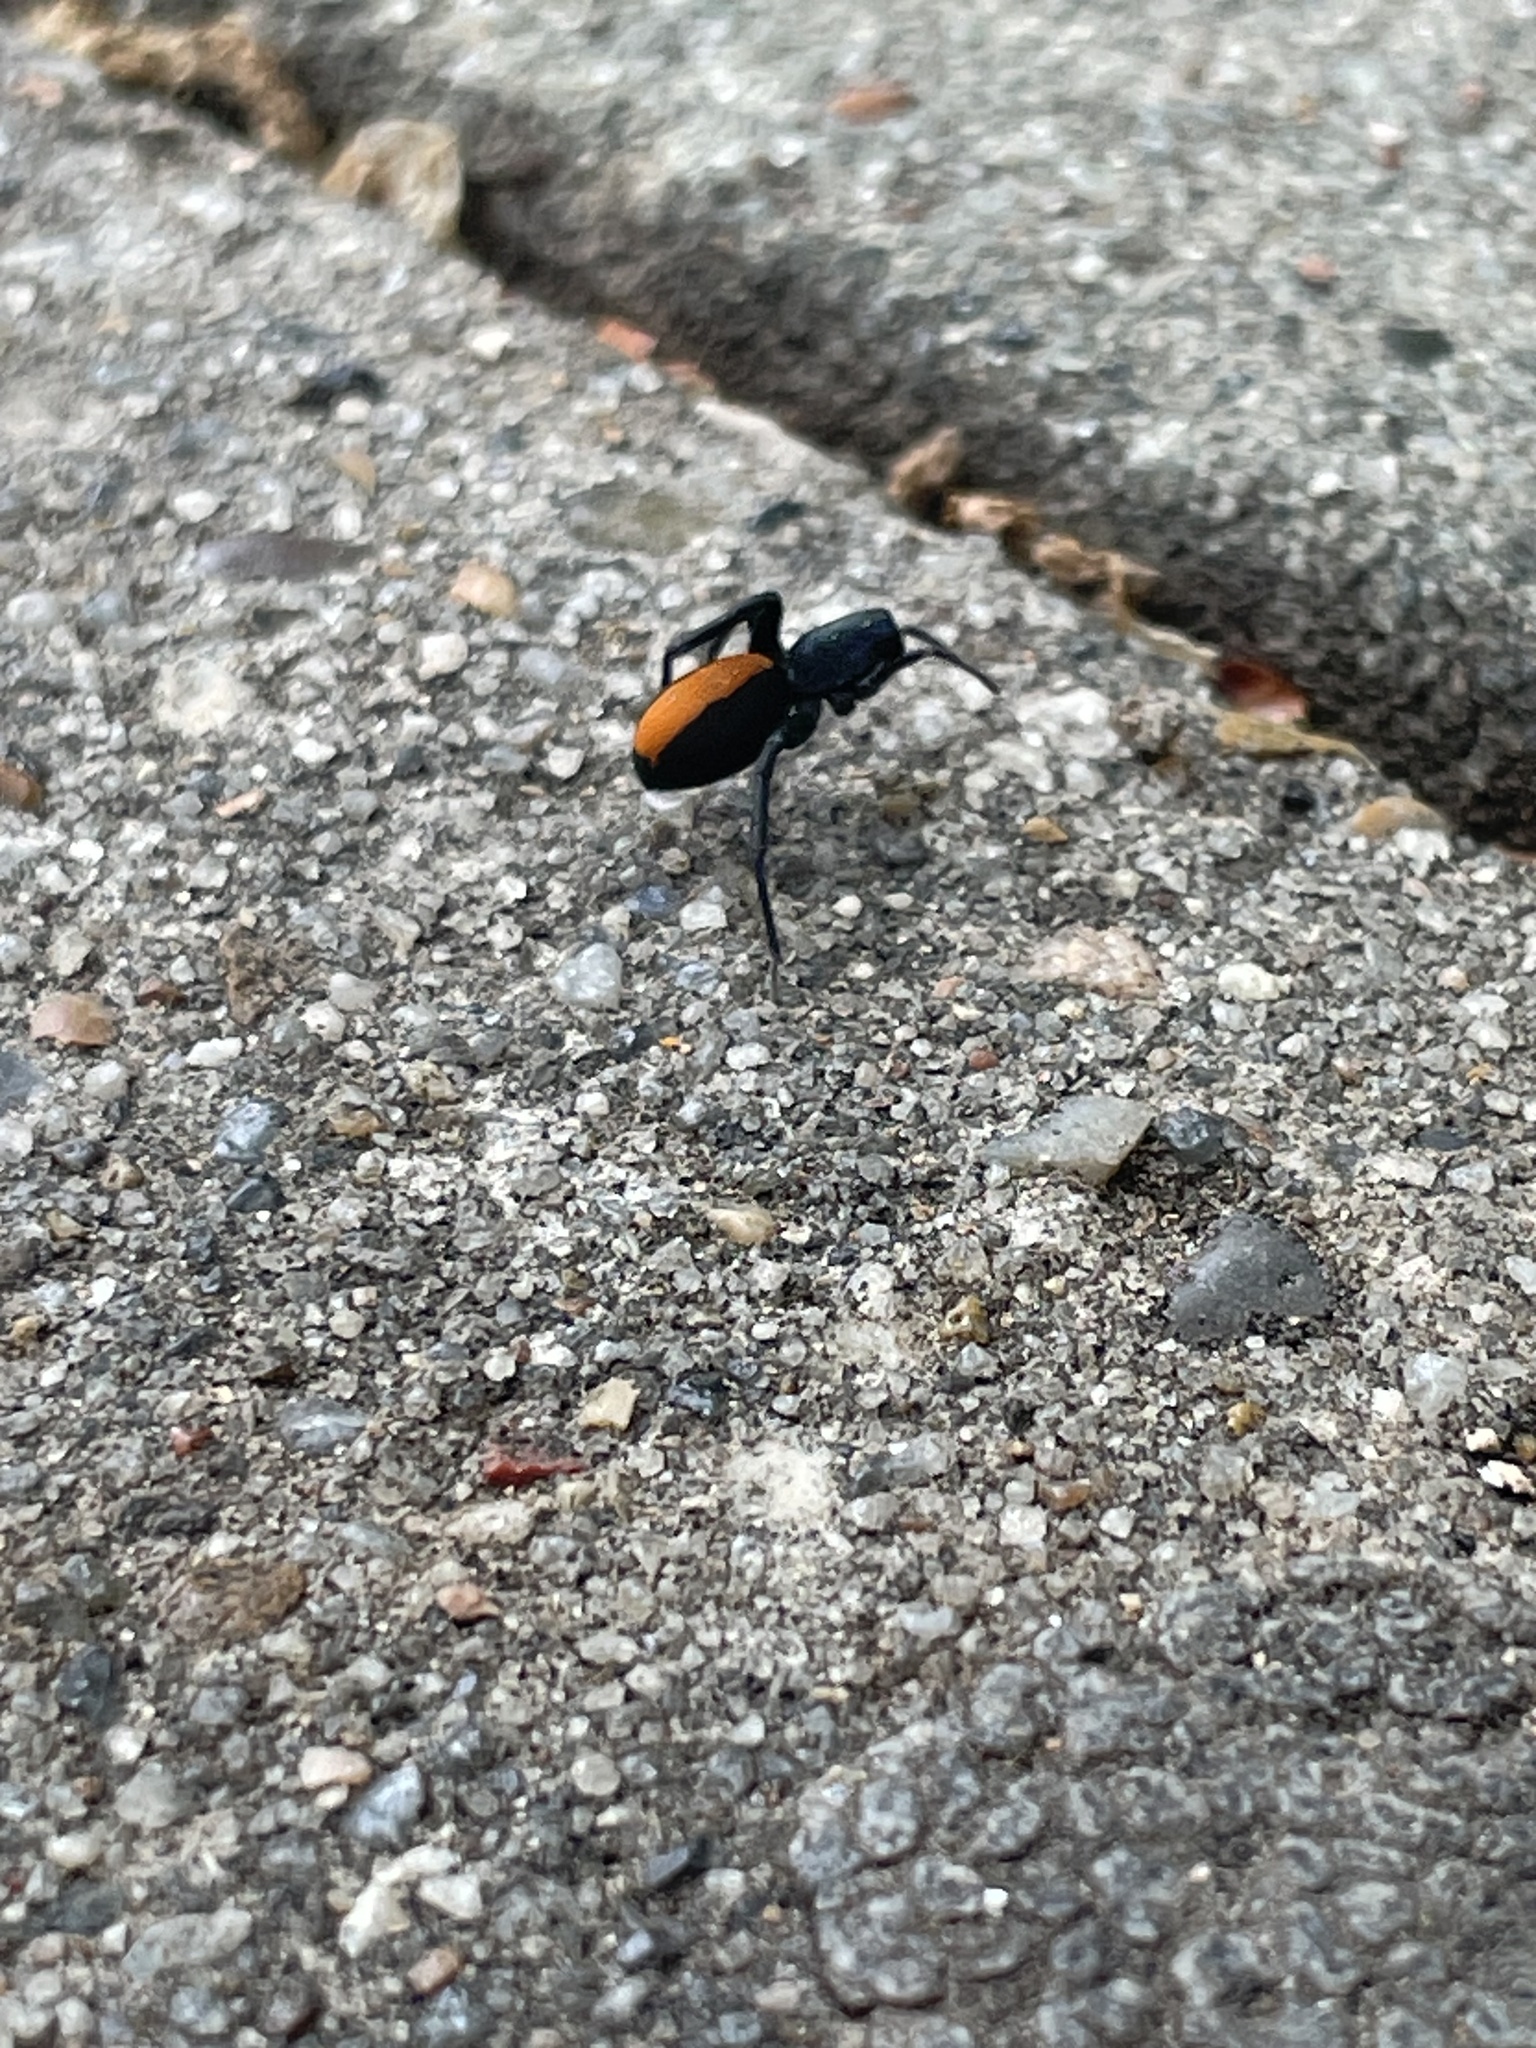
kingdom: Animalia
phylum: Arthropoda
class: Arachnida
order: Araneae
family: Corinnidae
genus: Castianeira
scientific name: Castianeira crocata
